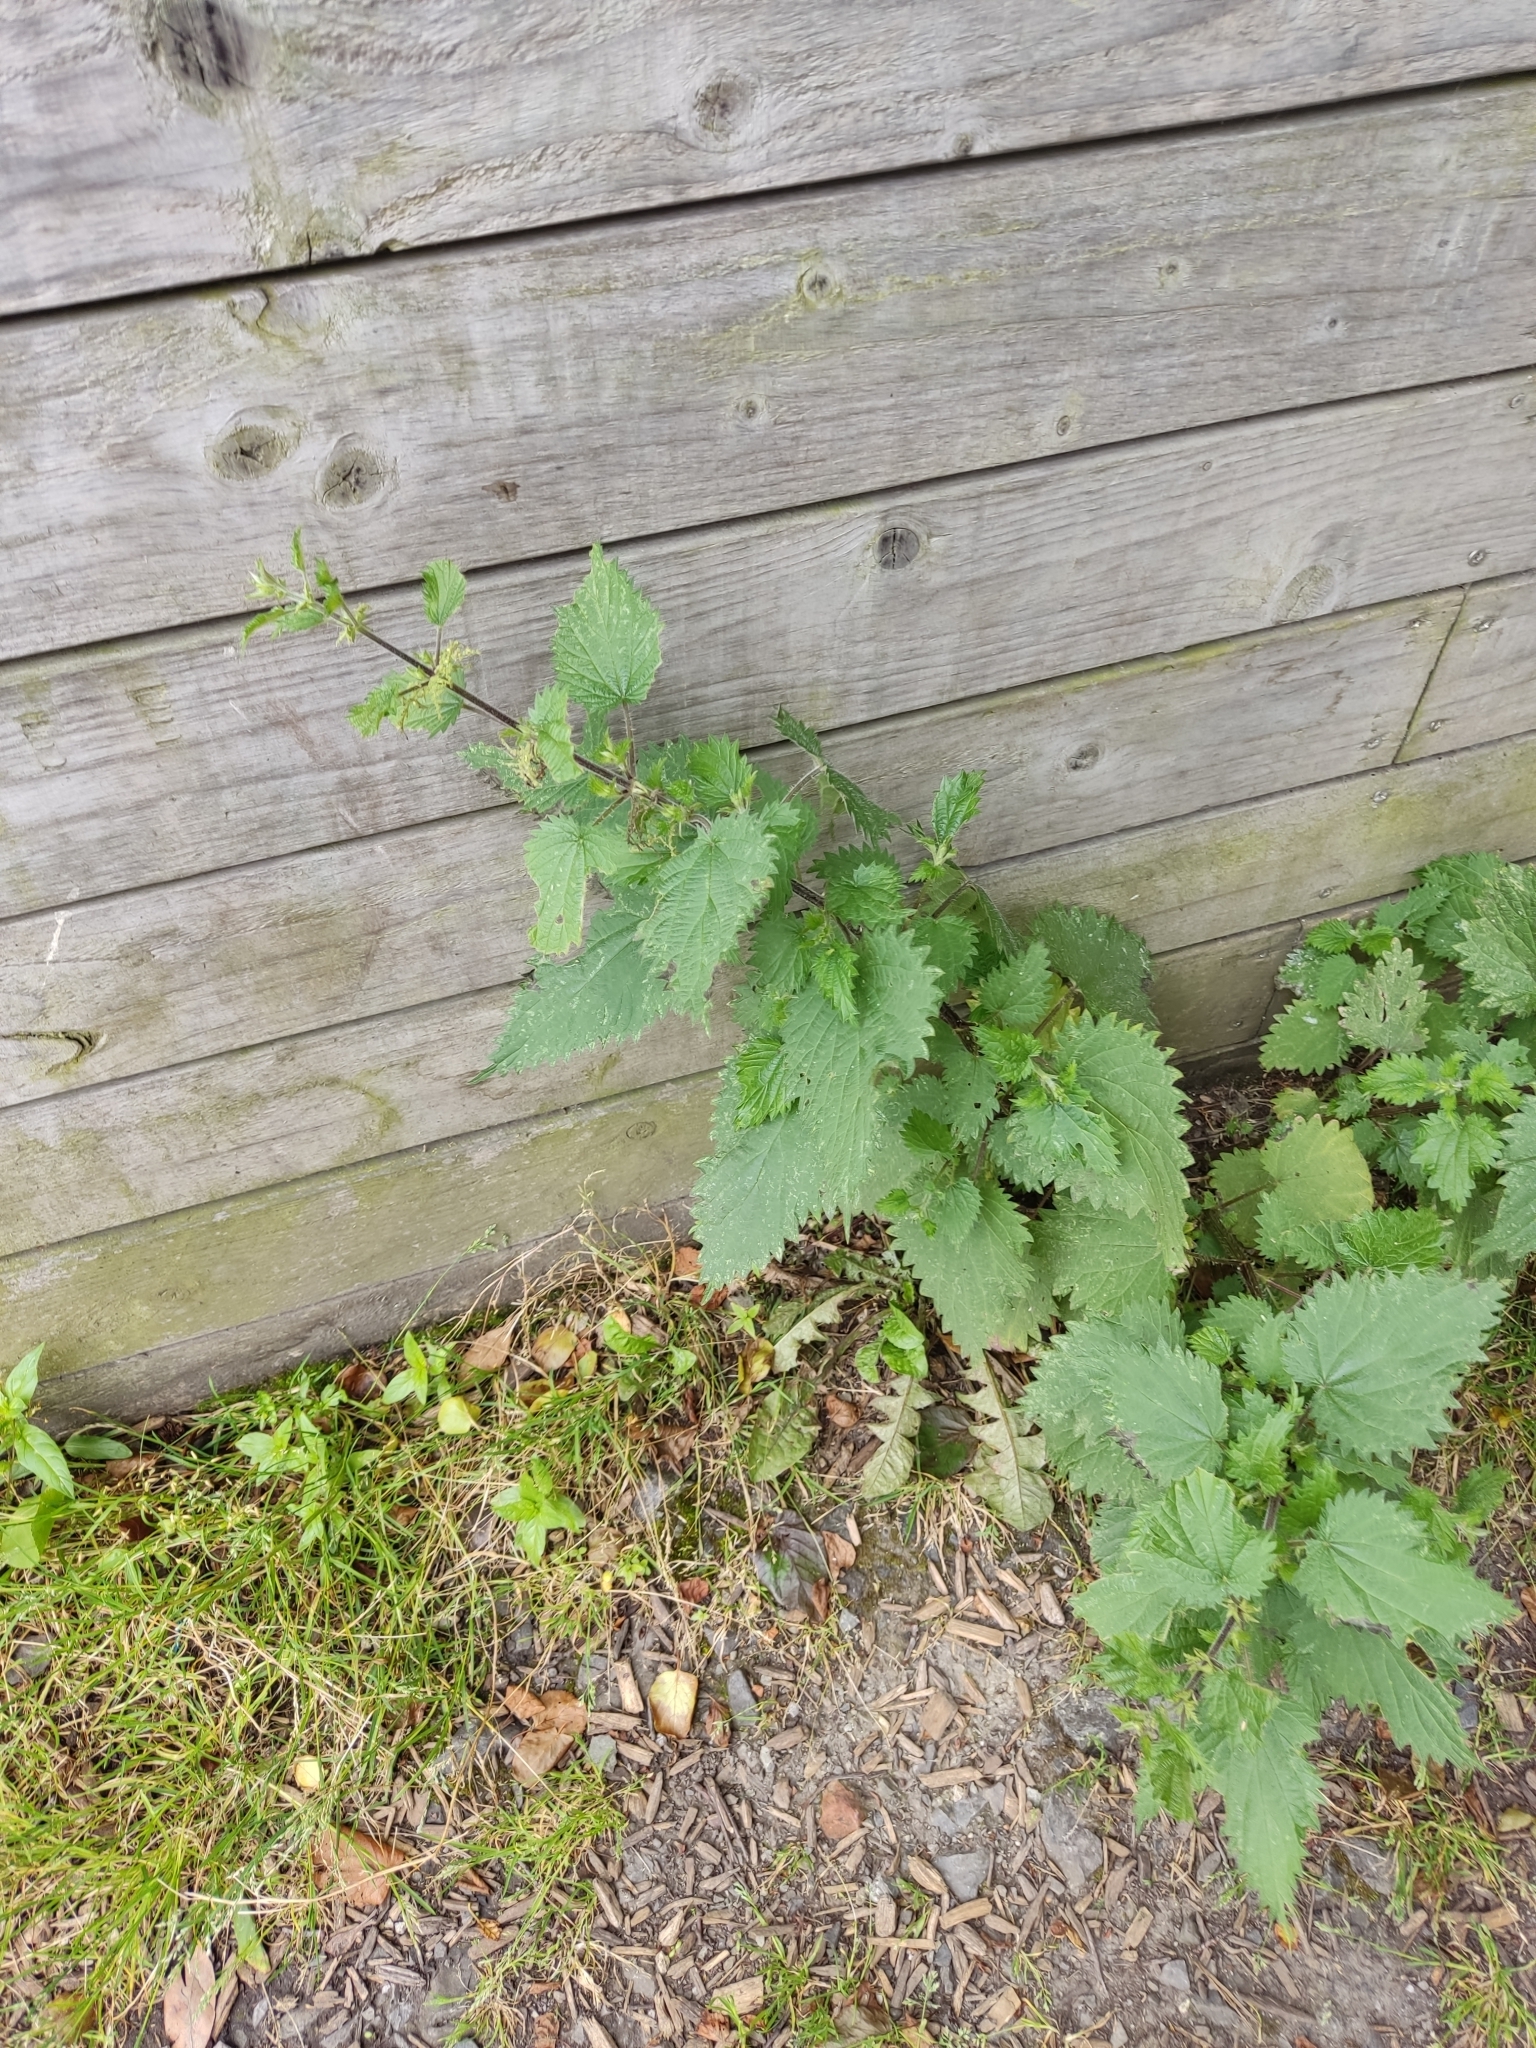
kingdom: Plantae
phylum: Tracheophyta
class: Magnoliopsida
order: Rosales
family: Urticaceae
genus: Urtica
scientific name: Urtica dioica
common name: Common nettle
